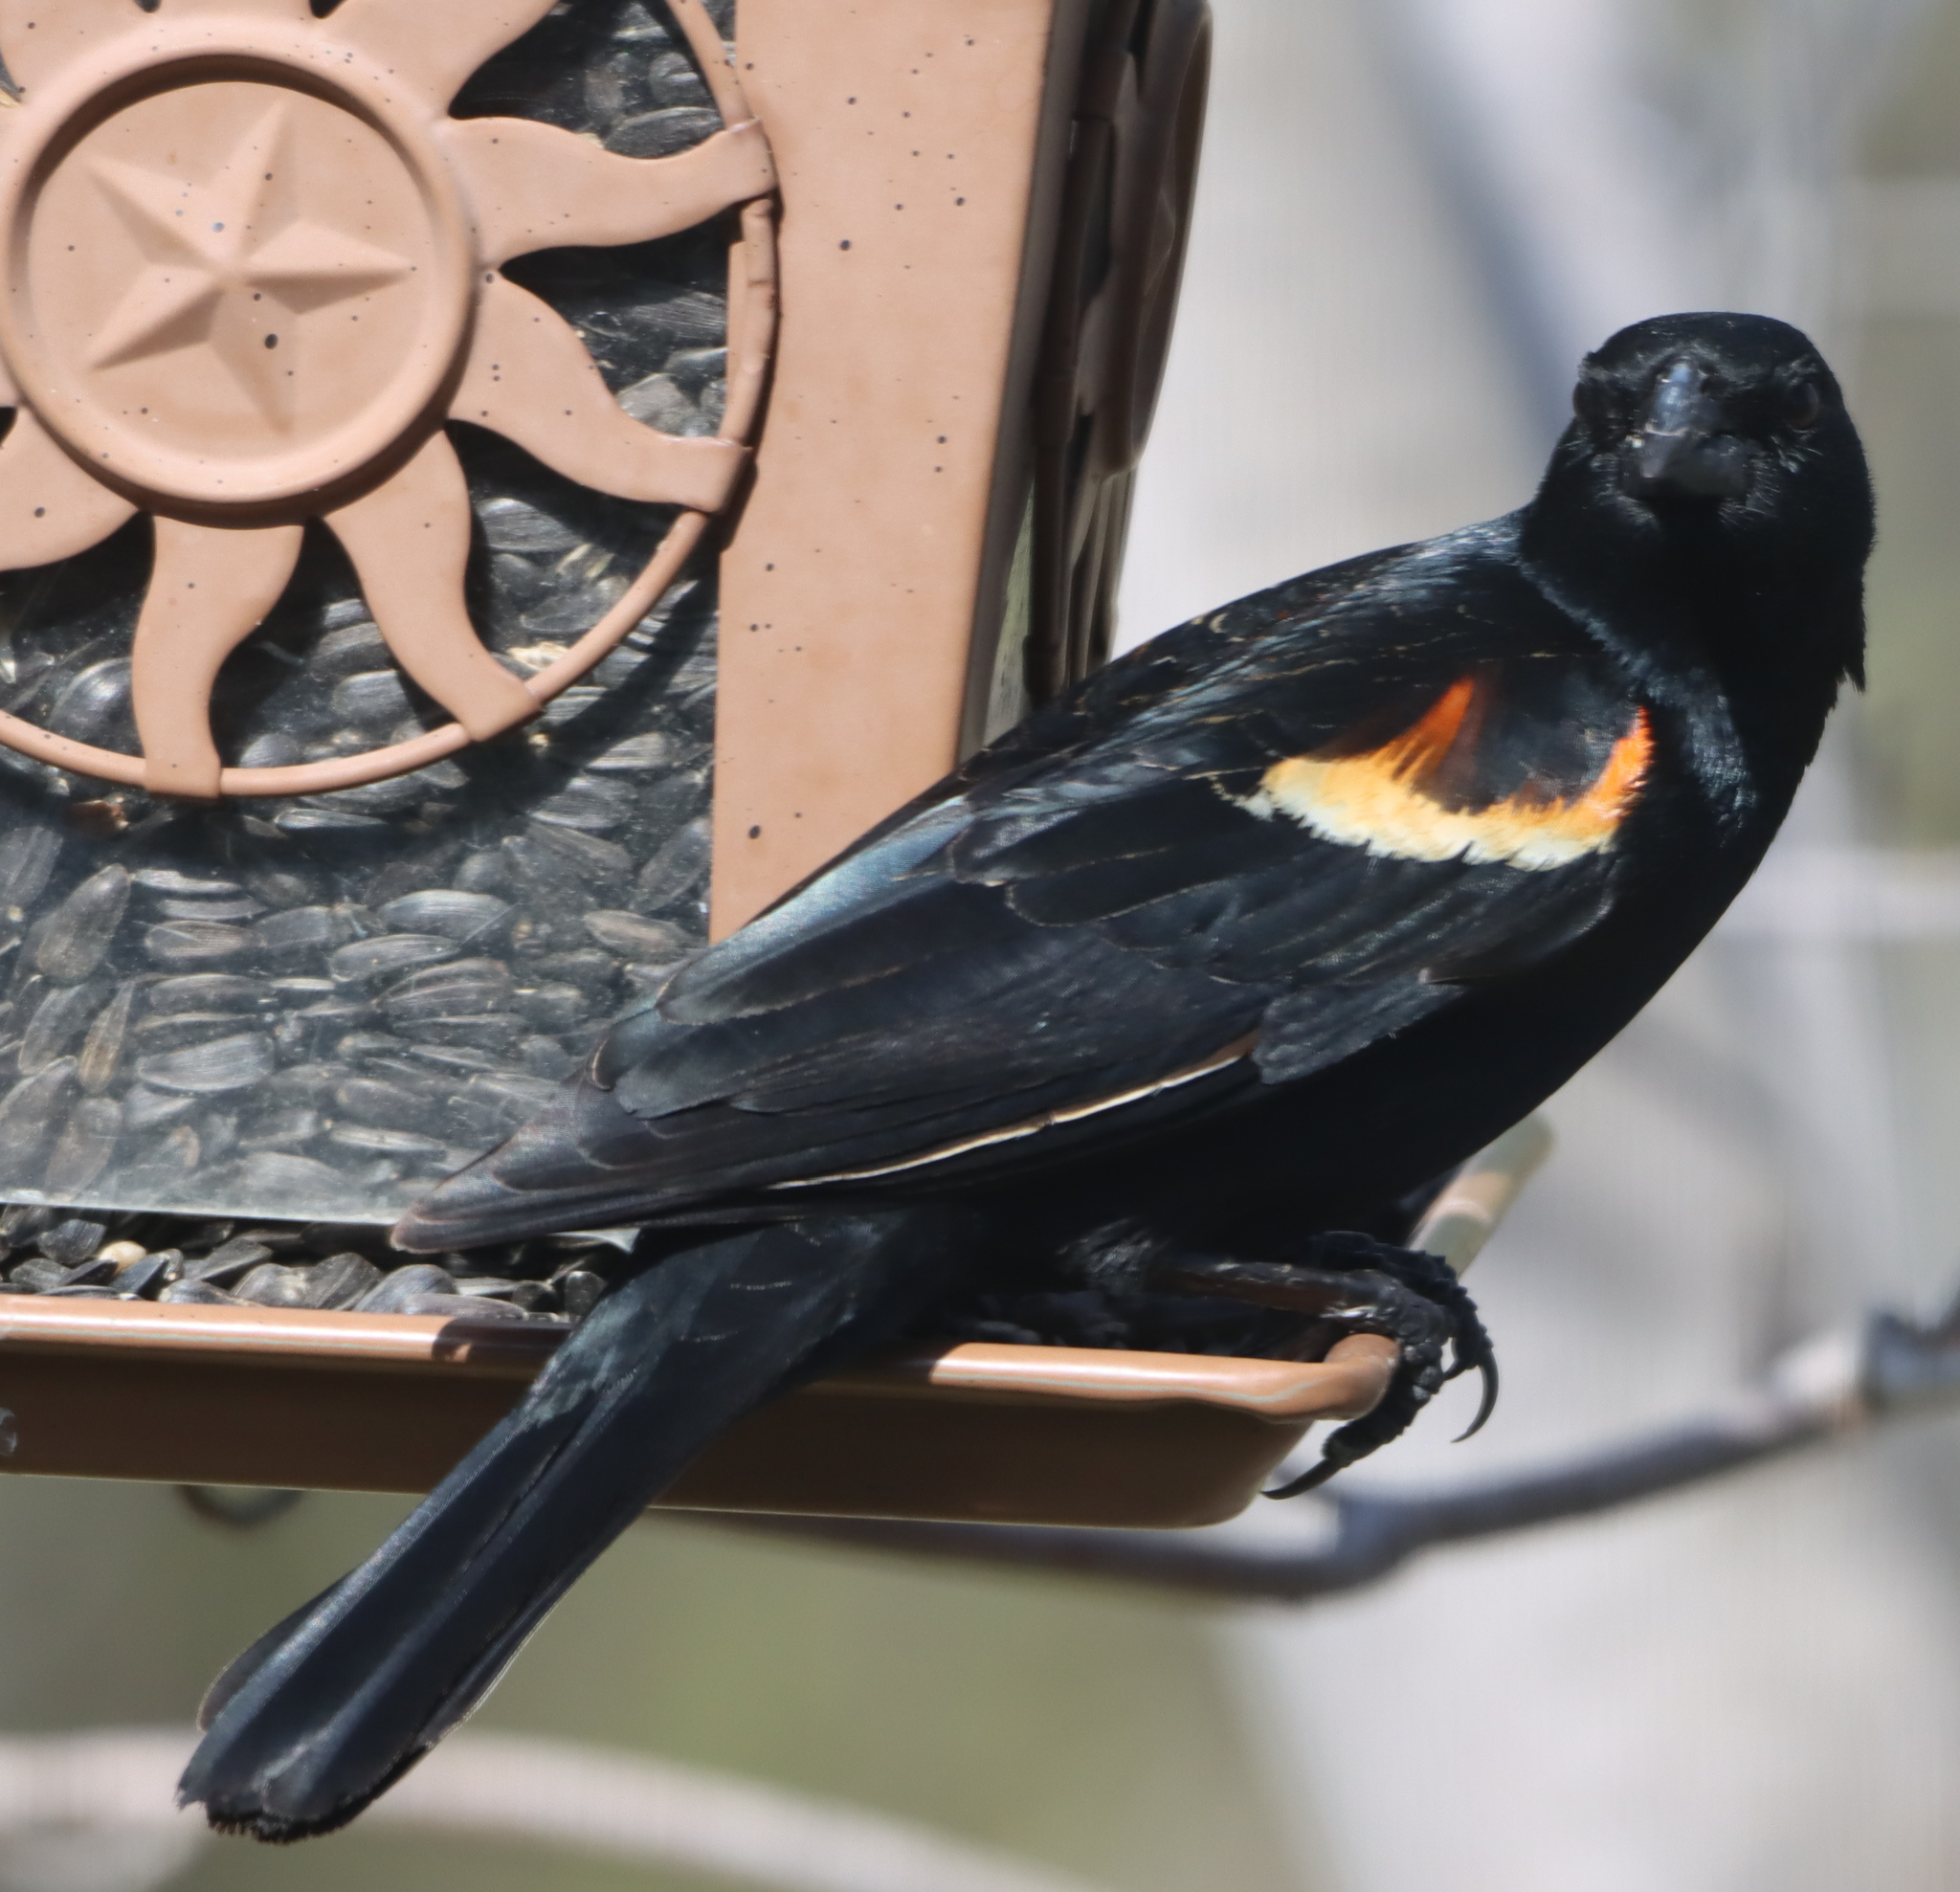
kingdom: Animalia
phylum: Chordata
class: Aves
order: Passeriformes
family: Icteridae
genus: Agelaius
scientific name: Agelaius phoeniceus
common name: Red-winged blackbird
